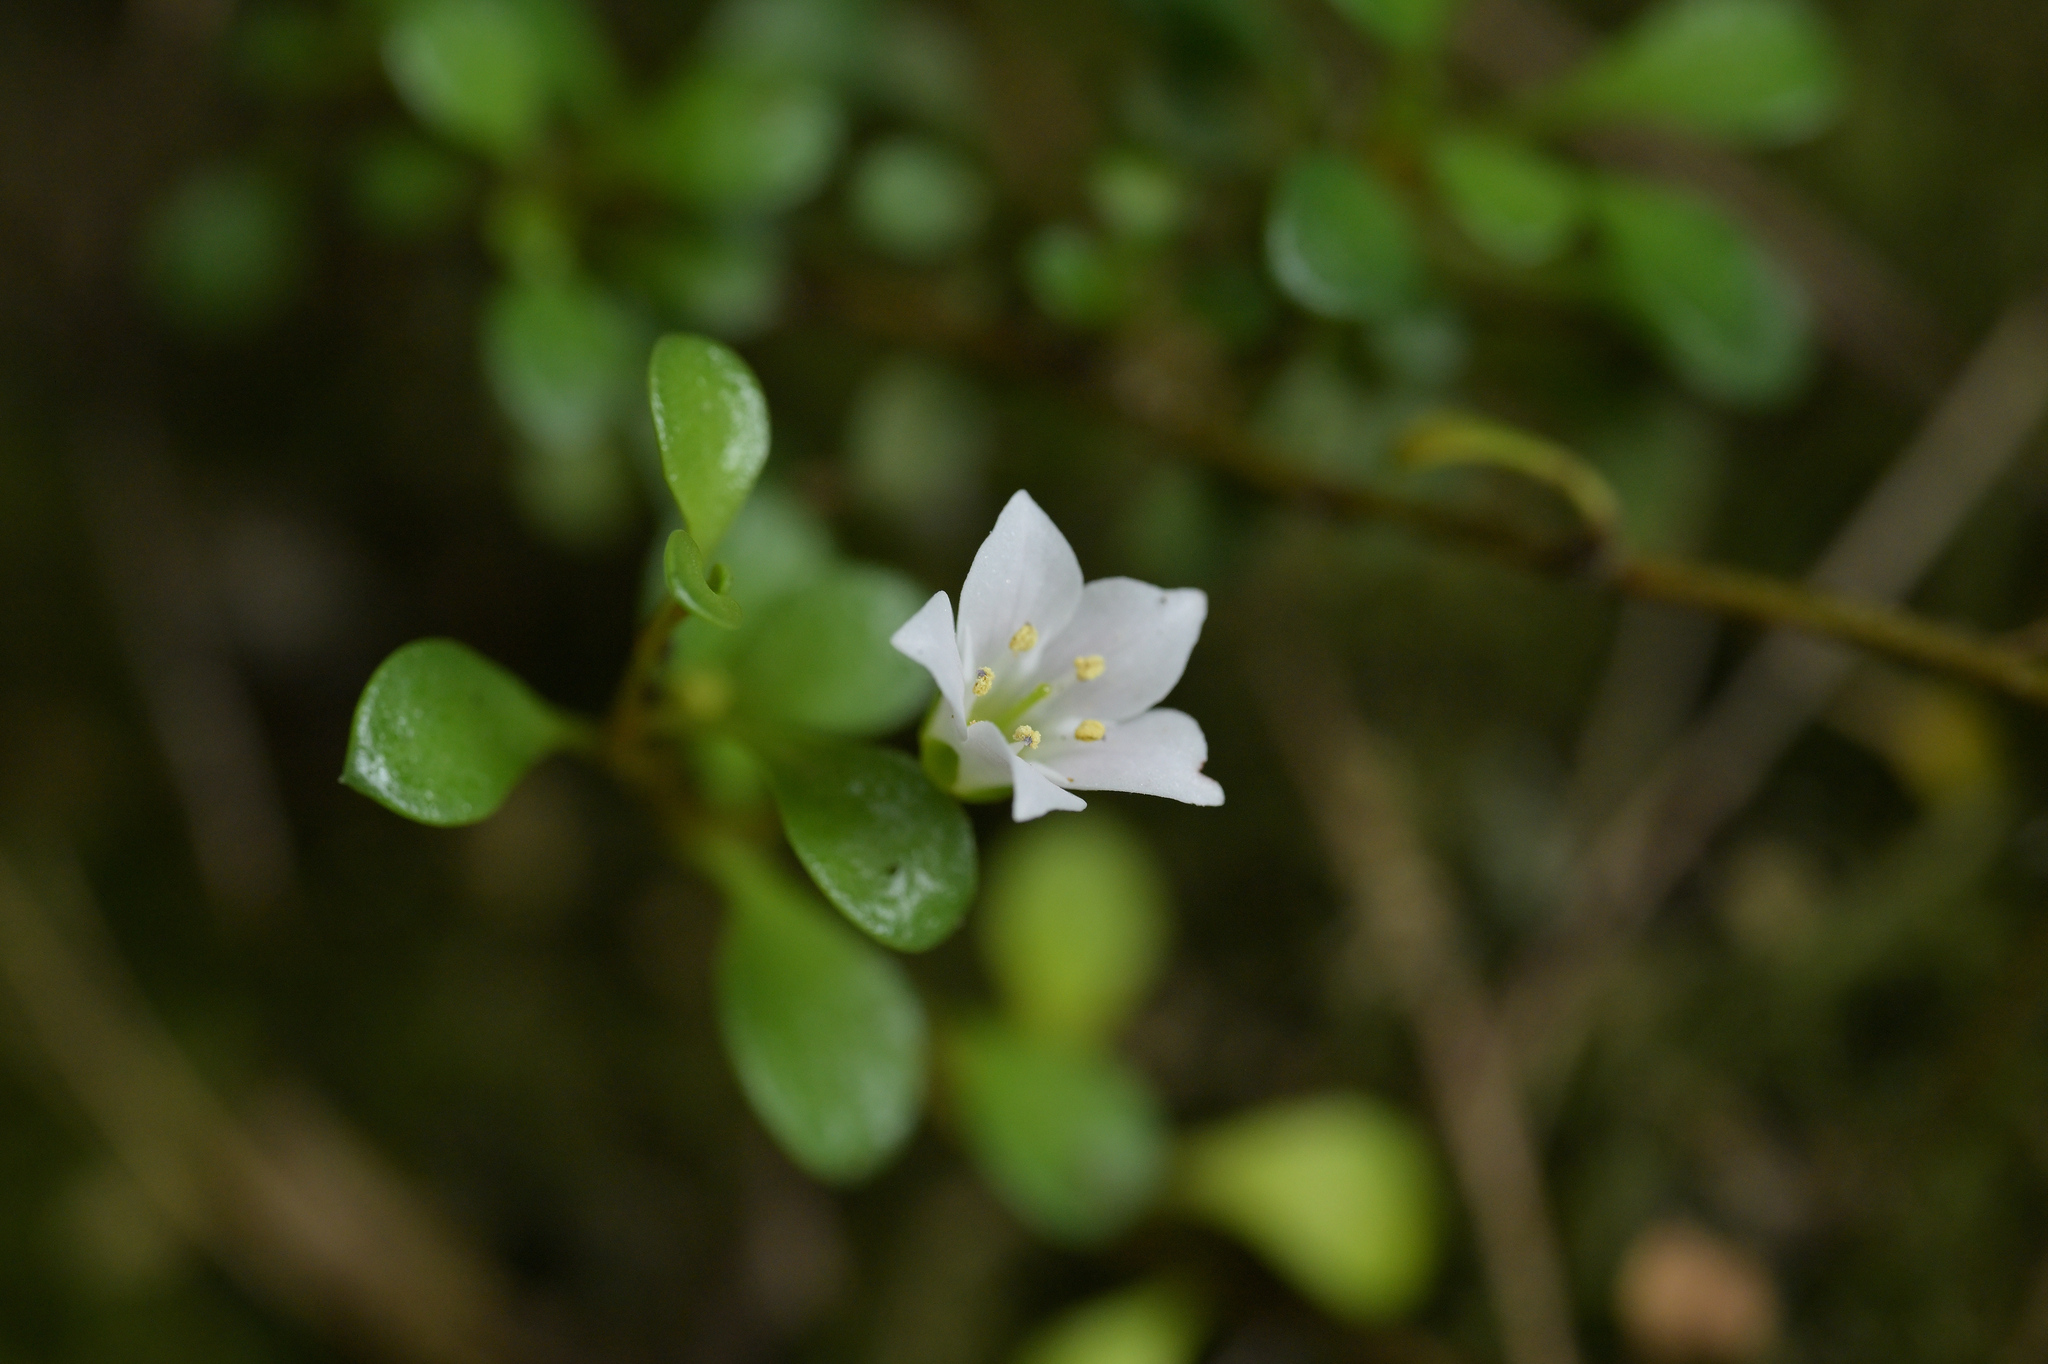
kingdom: Plantae
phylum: Tracheophyta
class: Magnoliopsida
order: Ericales
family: Primulaceae
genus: Samolus
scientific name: Samolus repens
